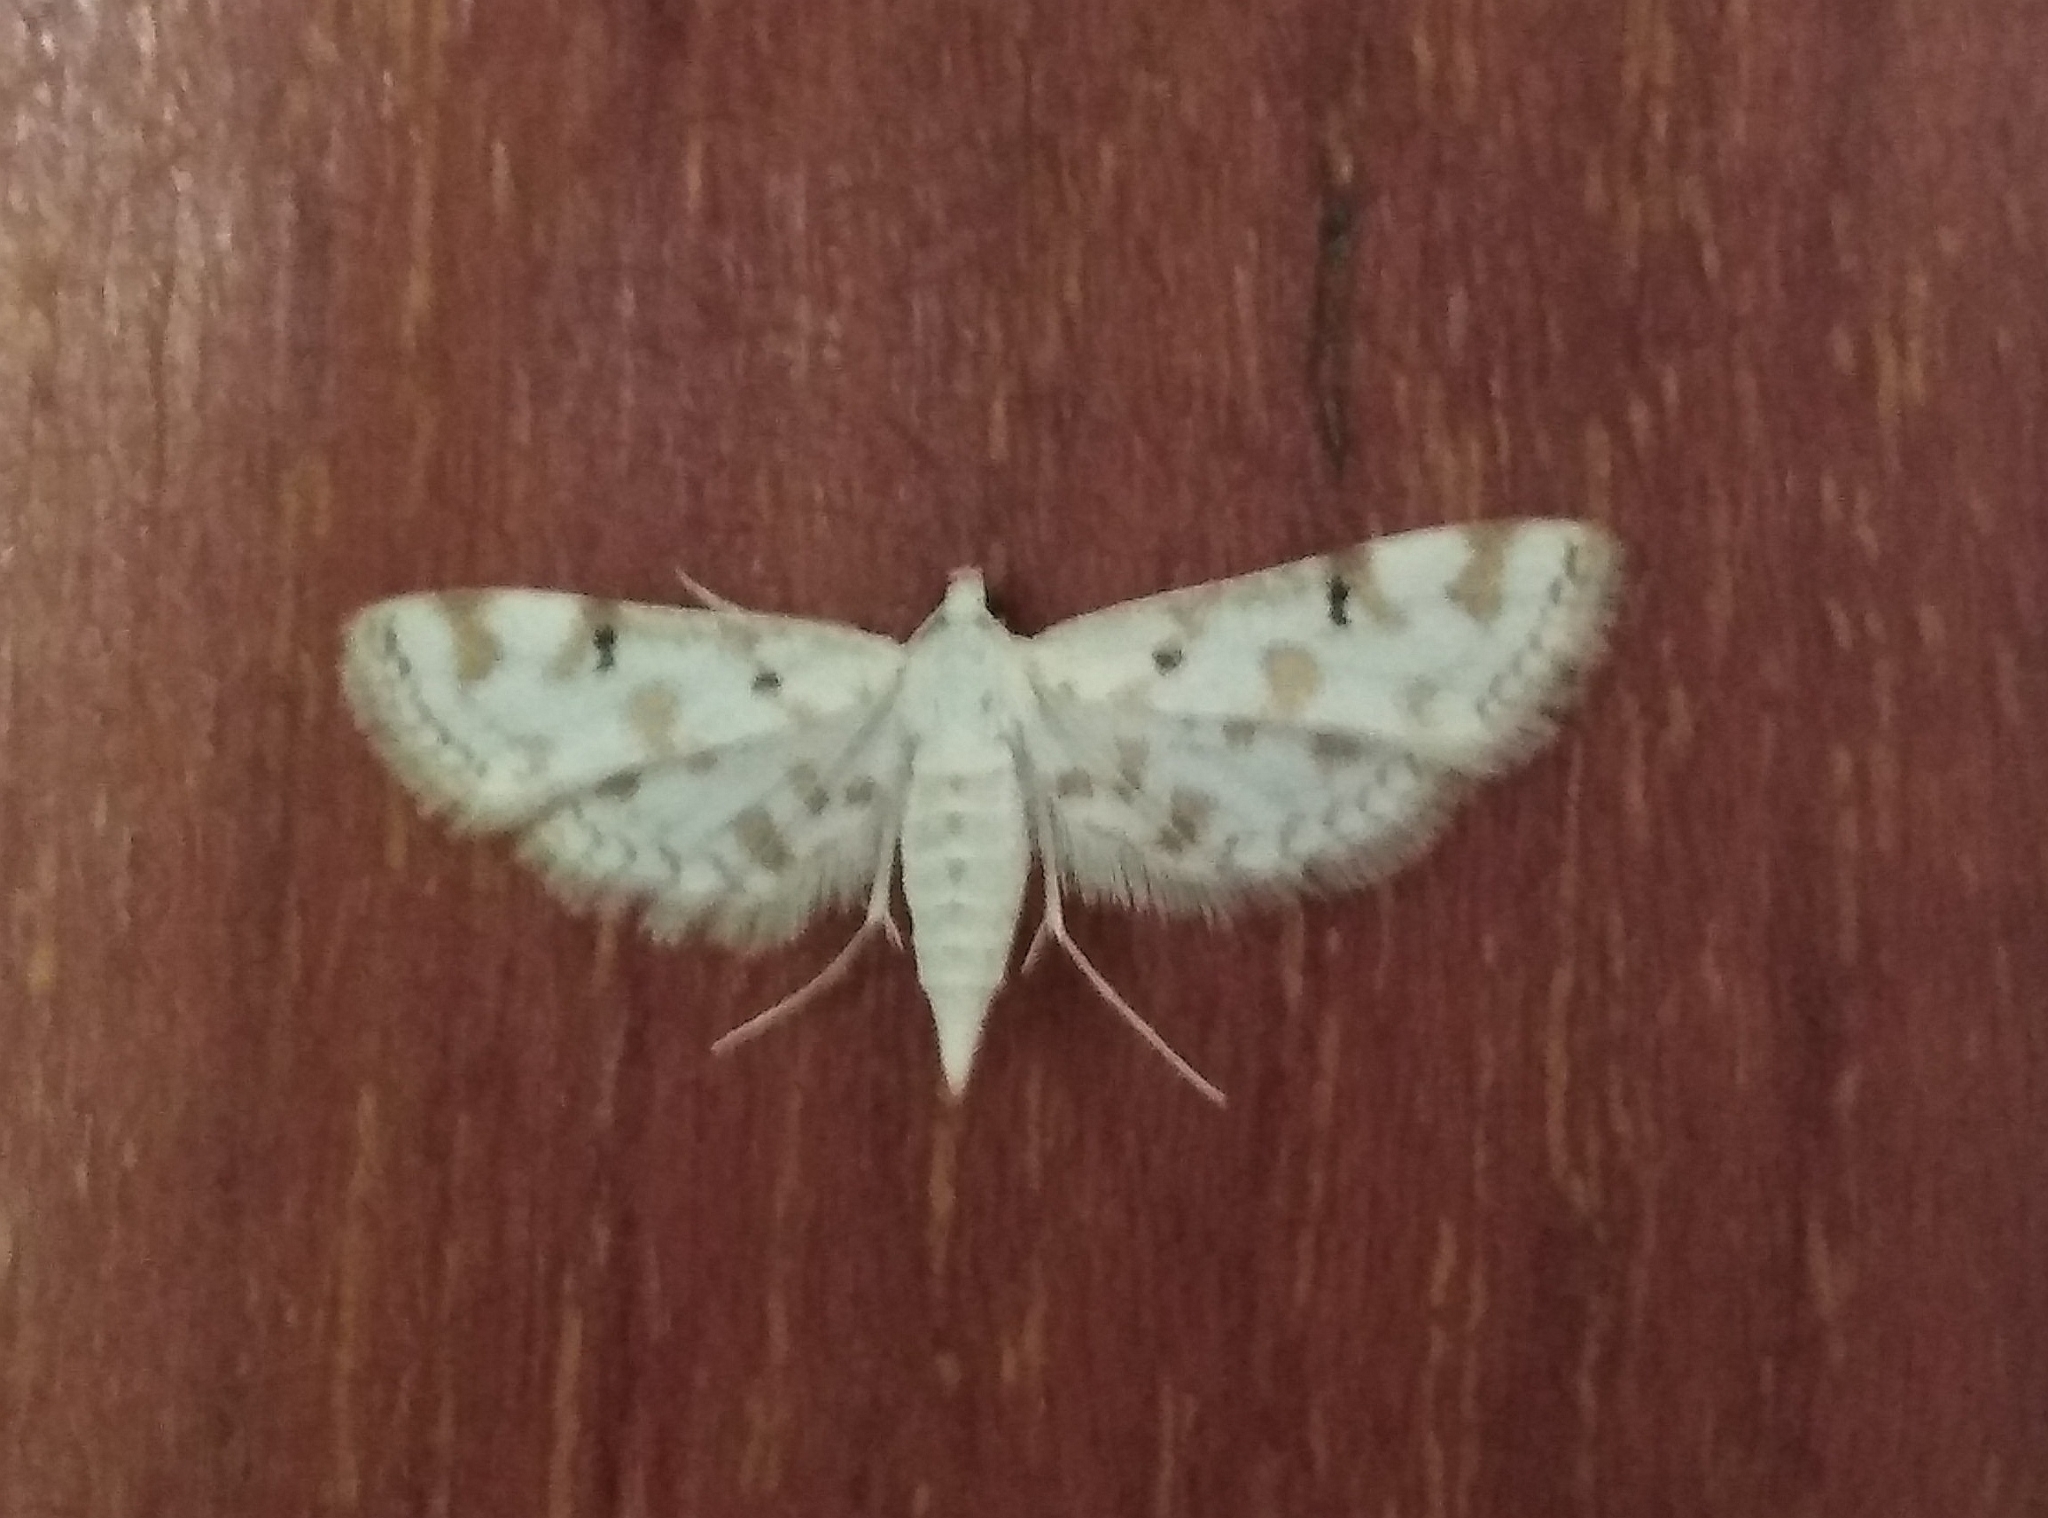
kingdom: Animalia
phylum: Arthropoda
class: Insecta
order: Lepidoptera
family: Crambidae
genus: Parapoynx
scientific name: Parapoynx stagnalis
